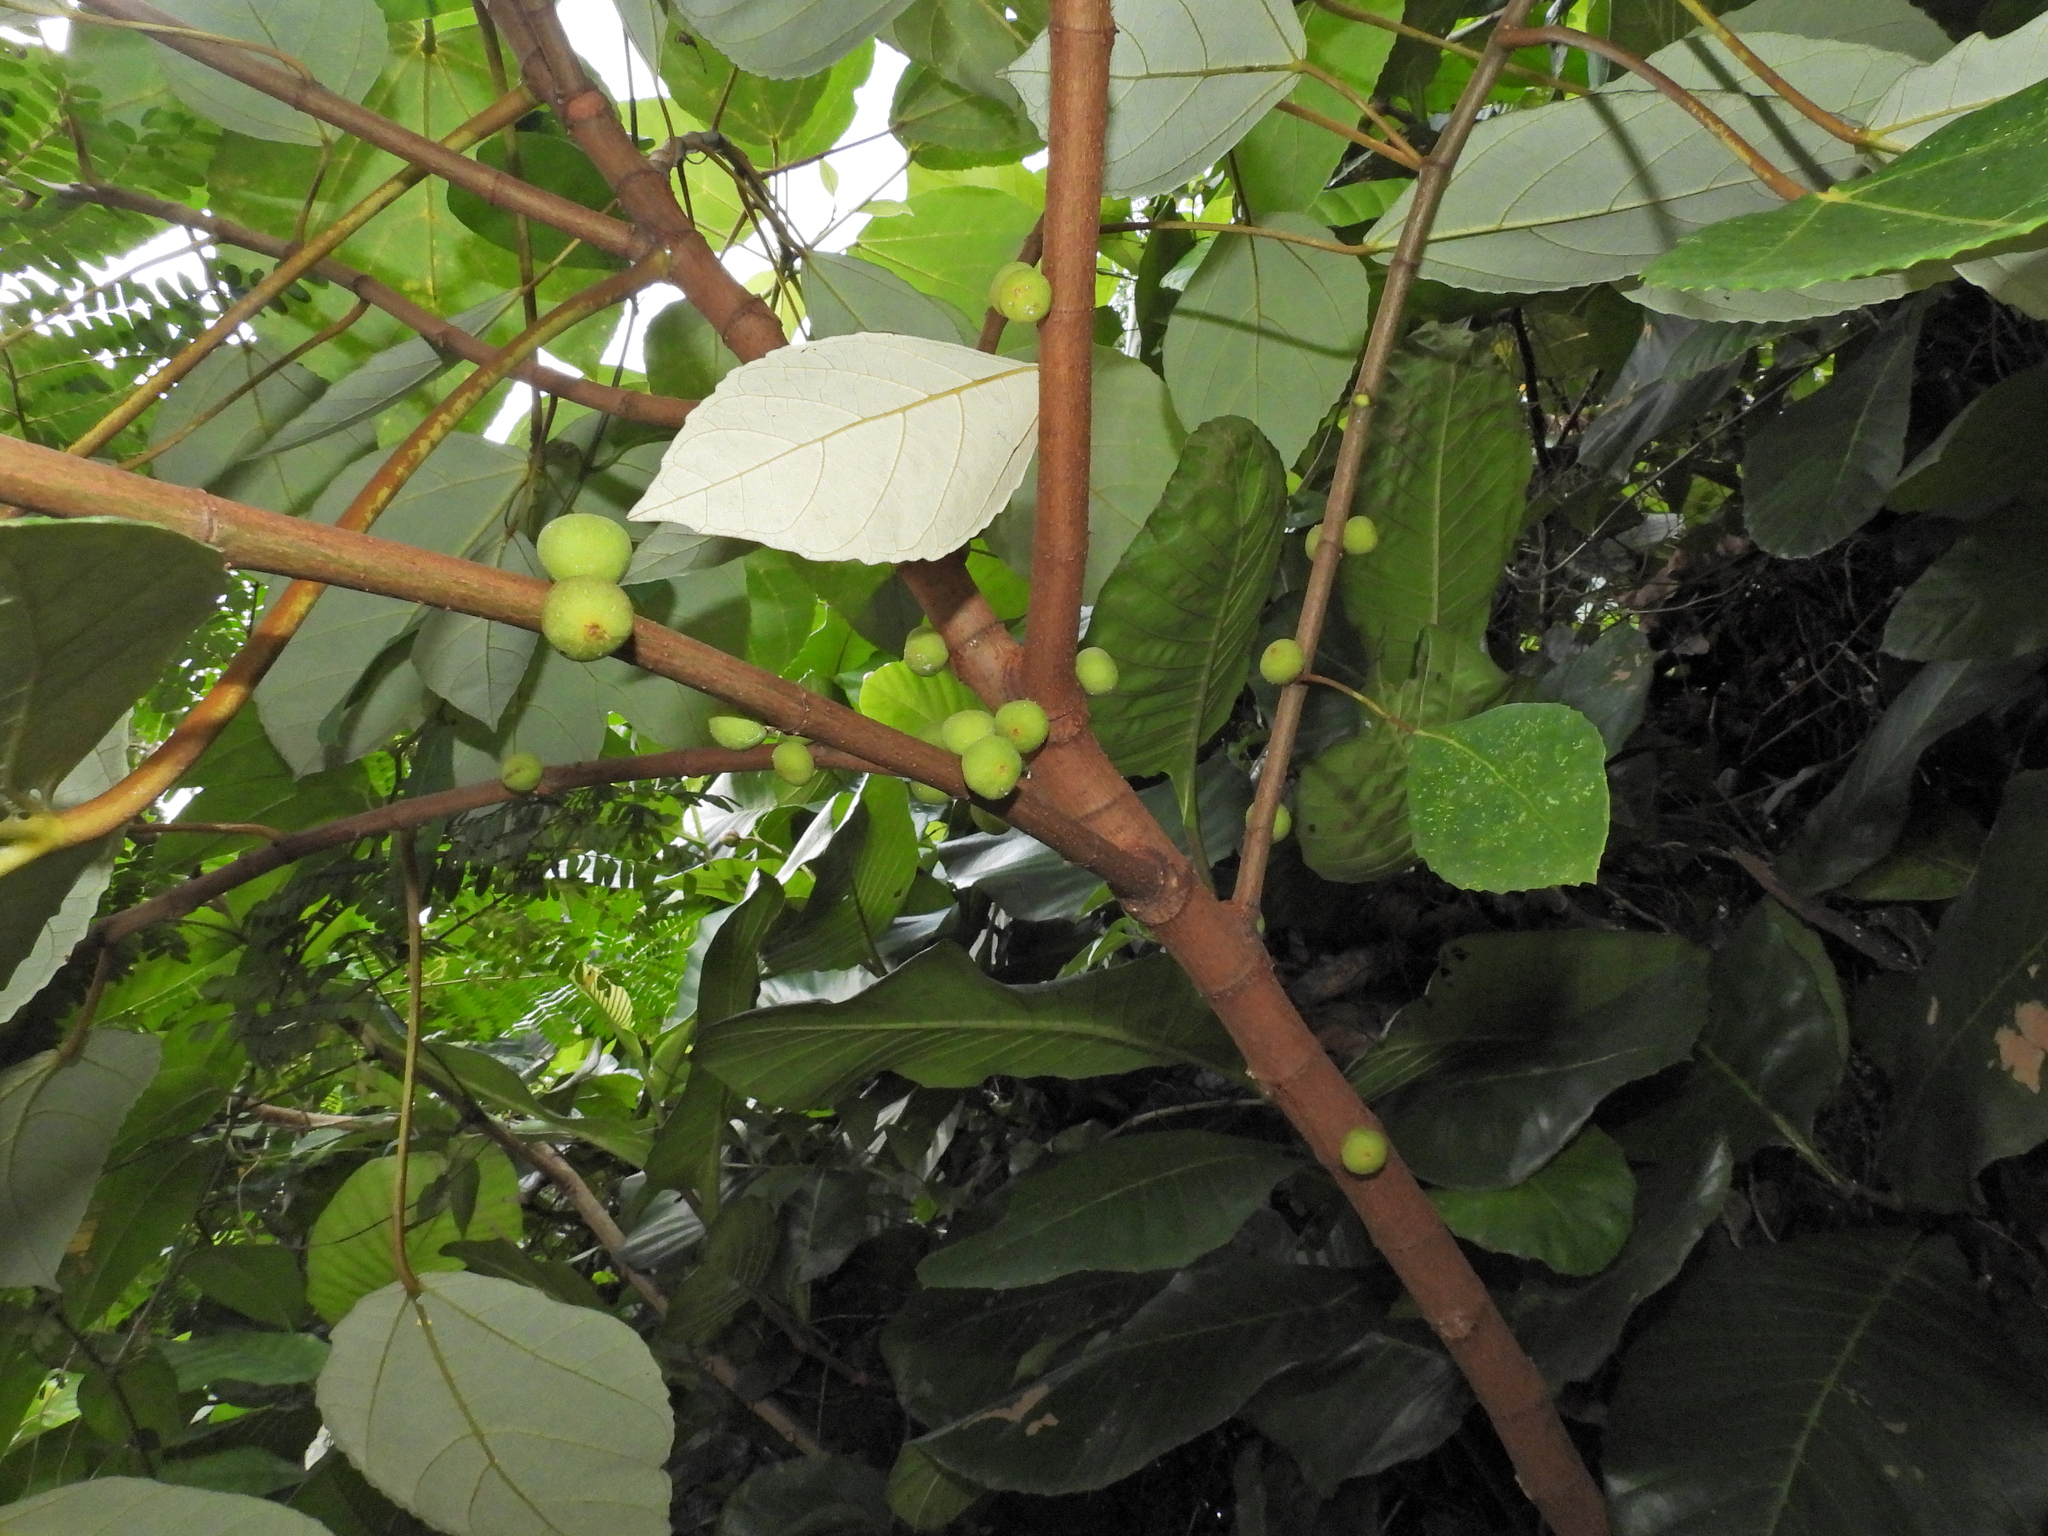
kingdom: Plantae
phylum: Tracheophyta
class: Magnoliopsida
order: Rosales
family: Moraceae
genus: Ficus
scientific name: Ficus grossularioides
